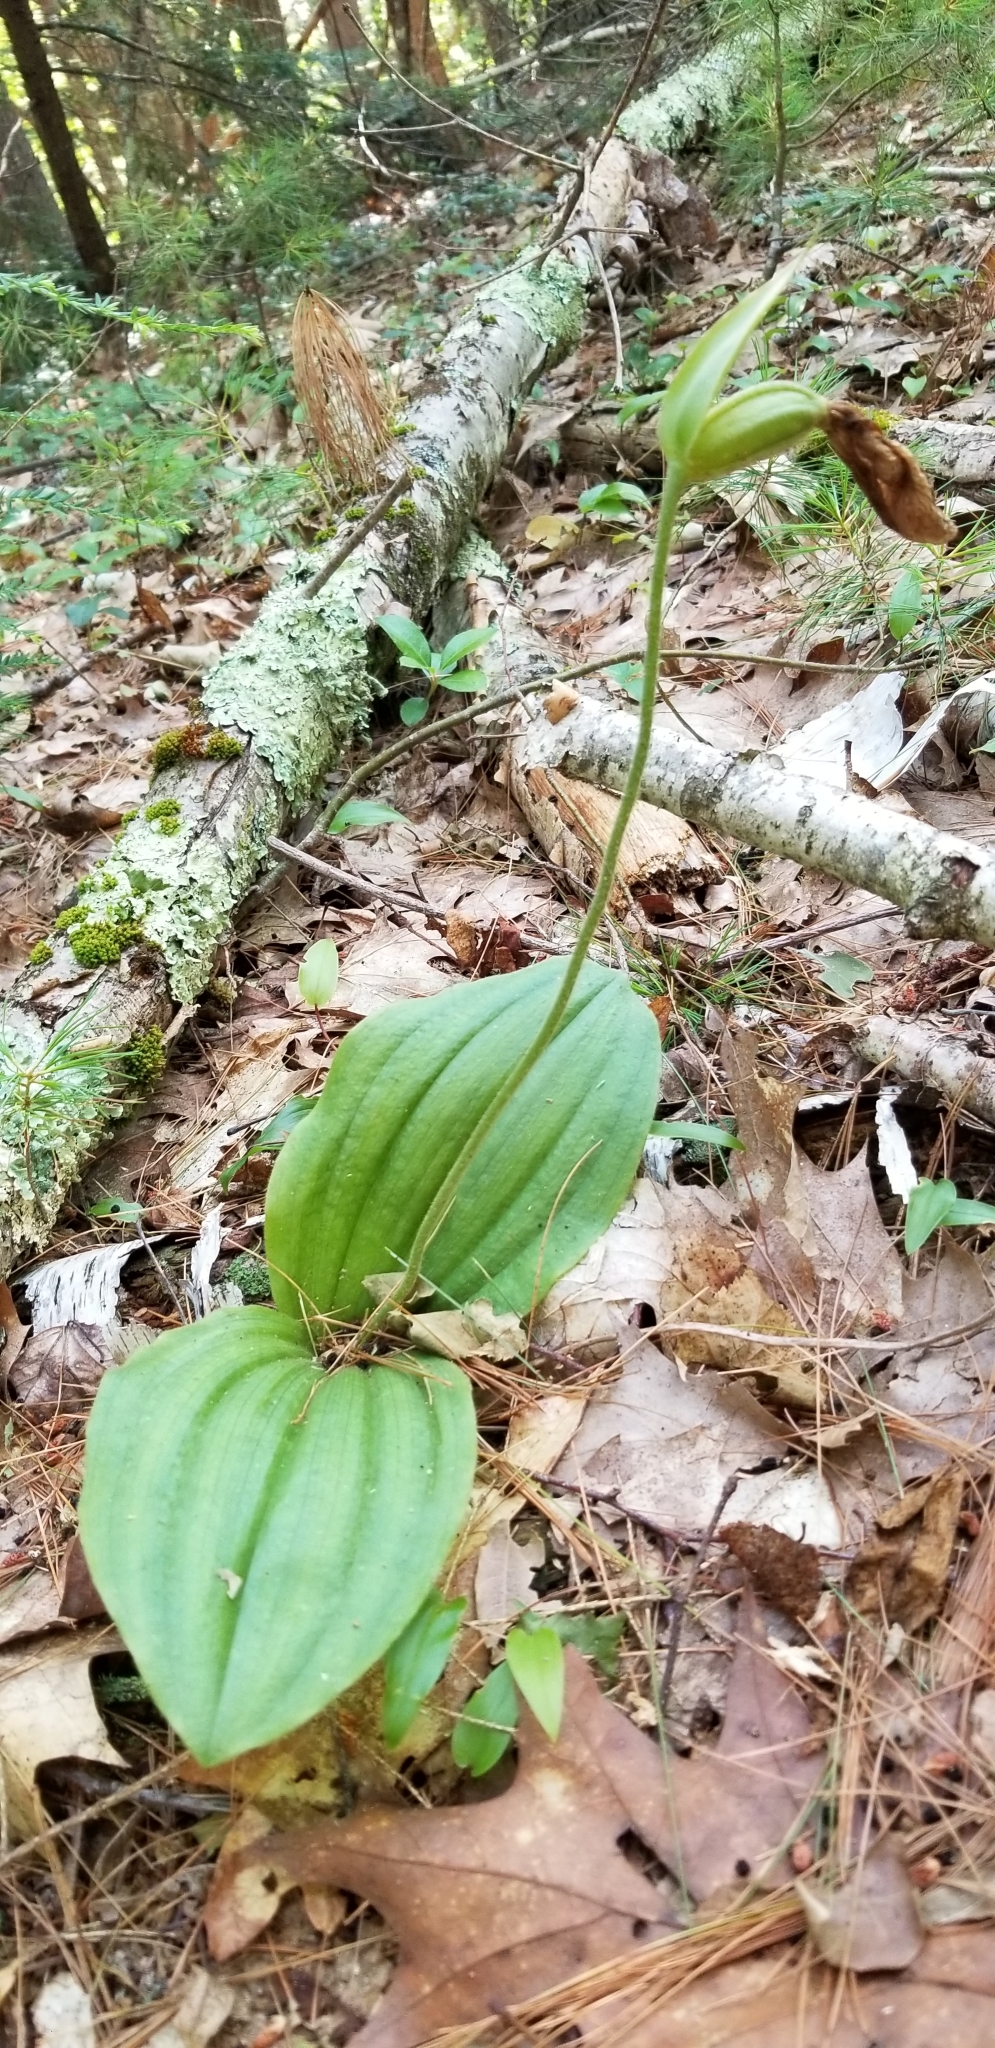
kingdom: Plantae
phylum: Tracheophyta
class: Liliopsida
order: Asparagales
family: Orchidaceae
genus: Cypripedium
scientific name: Cypripedium acaule
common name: Pink lady's-slipper
